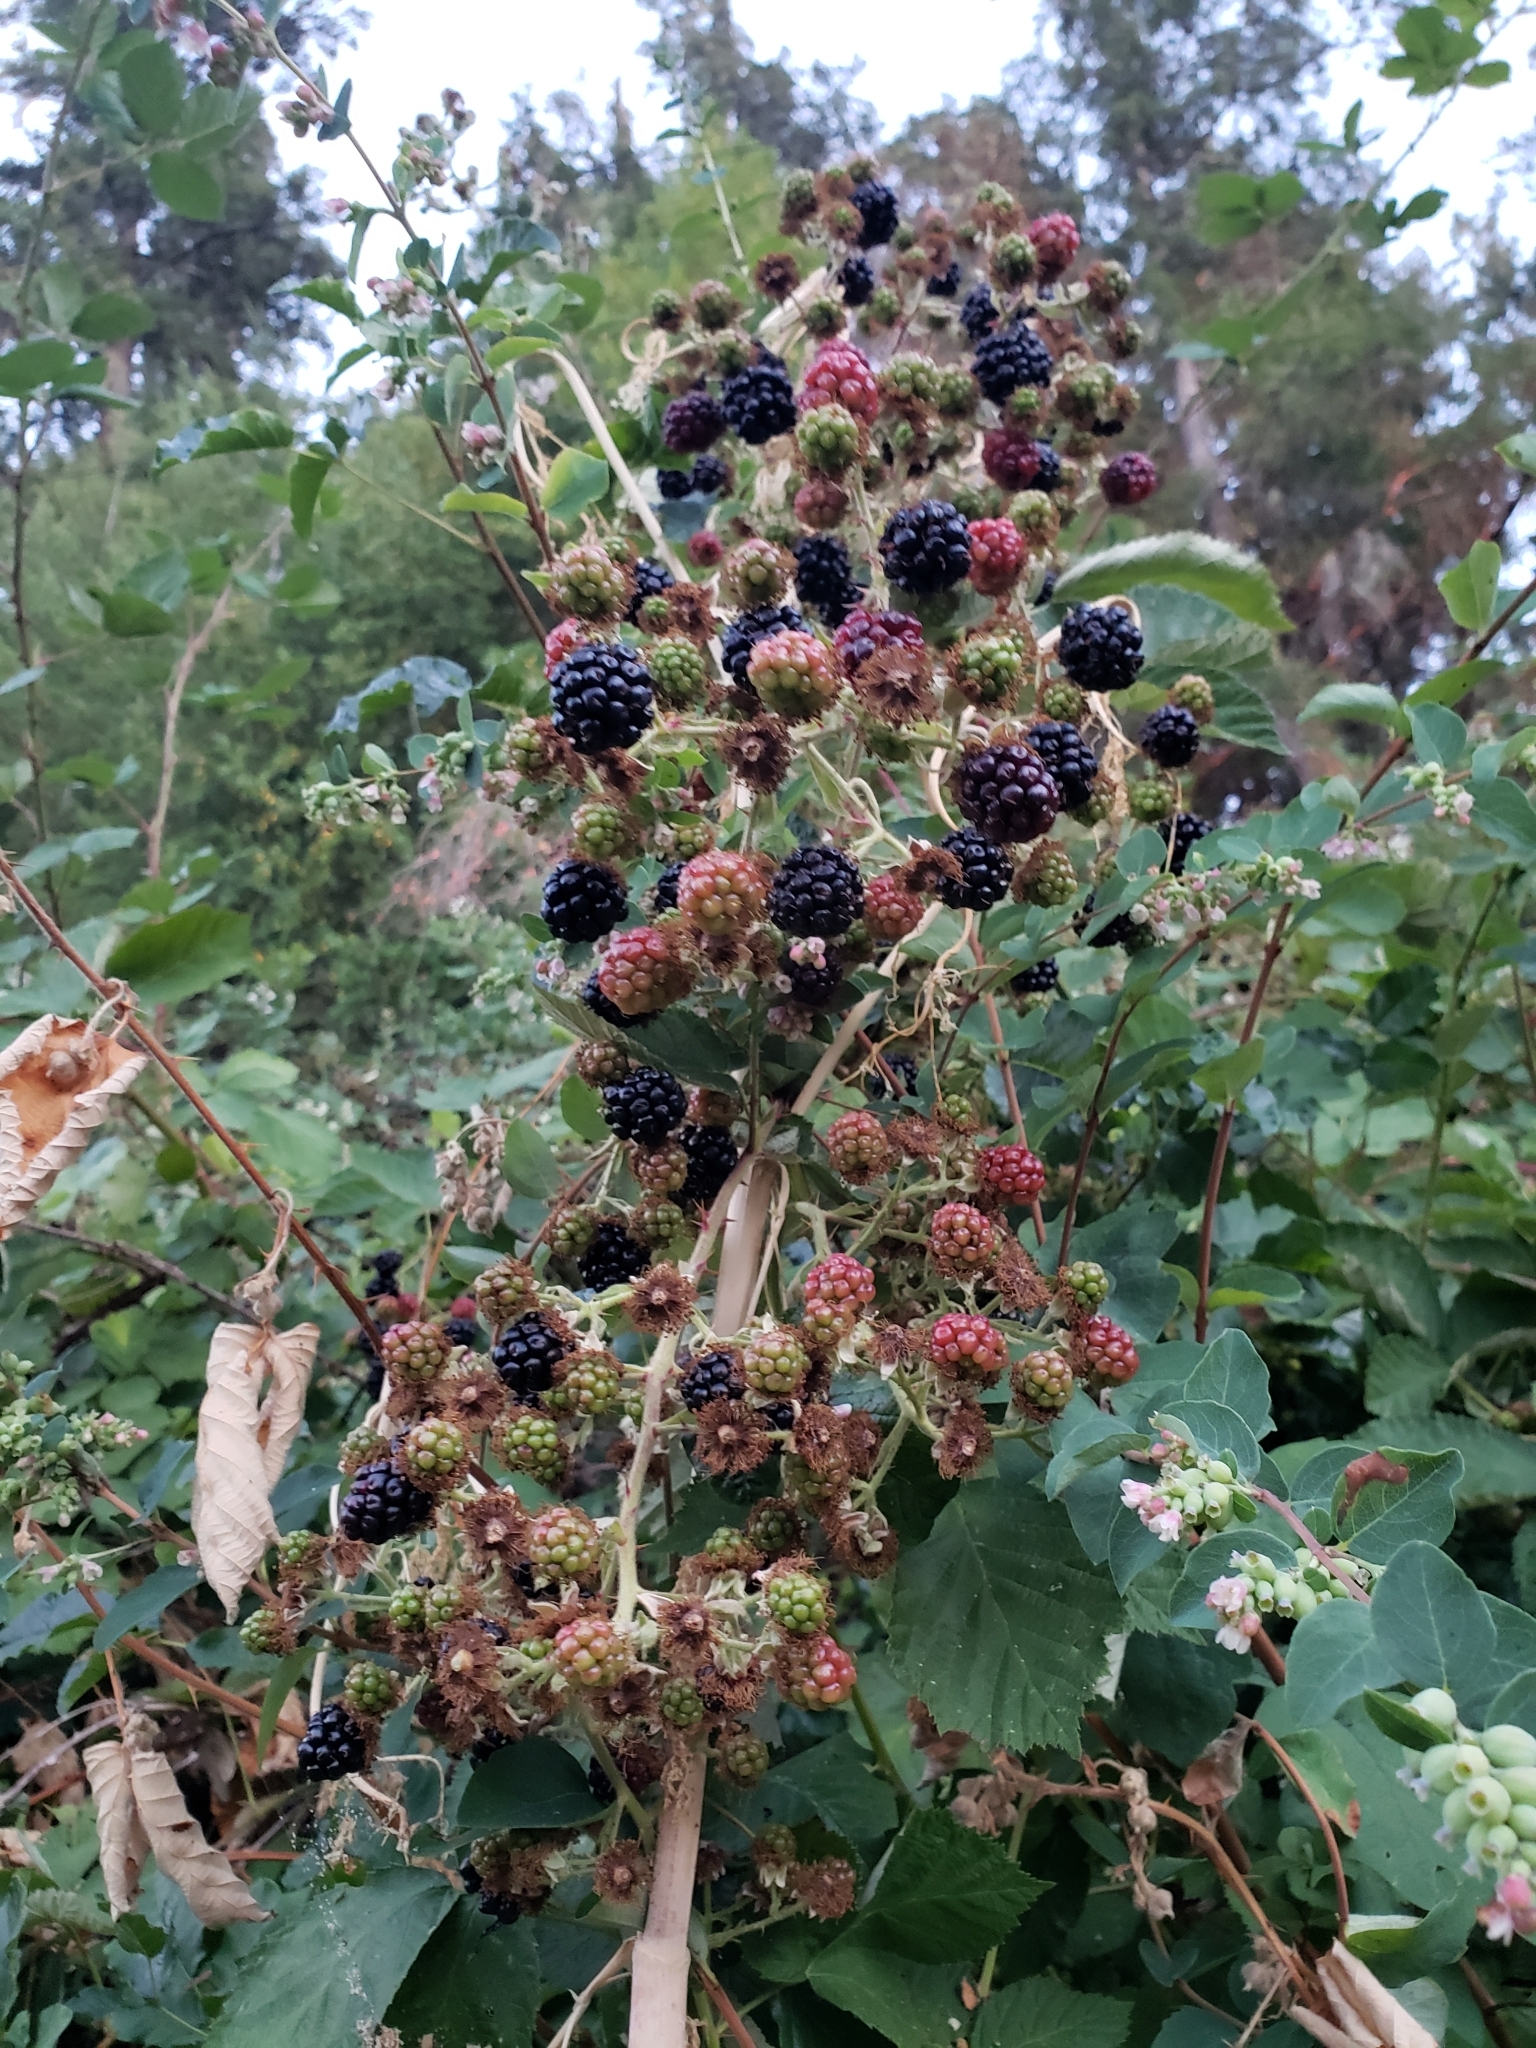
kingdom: Plantae
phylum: Tracheophyta
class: Magnoliopsida
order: Rosales
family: Rosaceae
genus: Rubus
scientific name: Rubus armeniacus
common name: Himalayan blackberry
